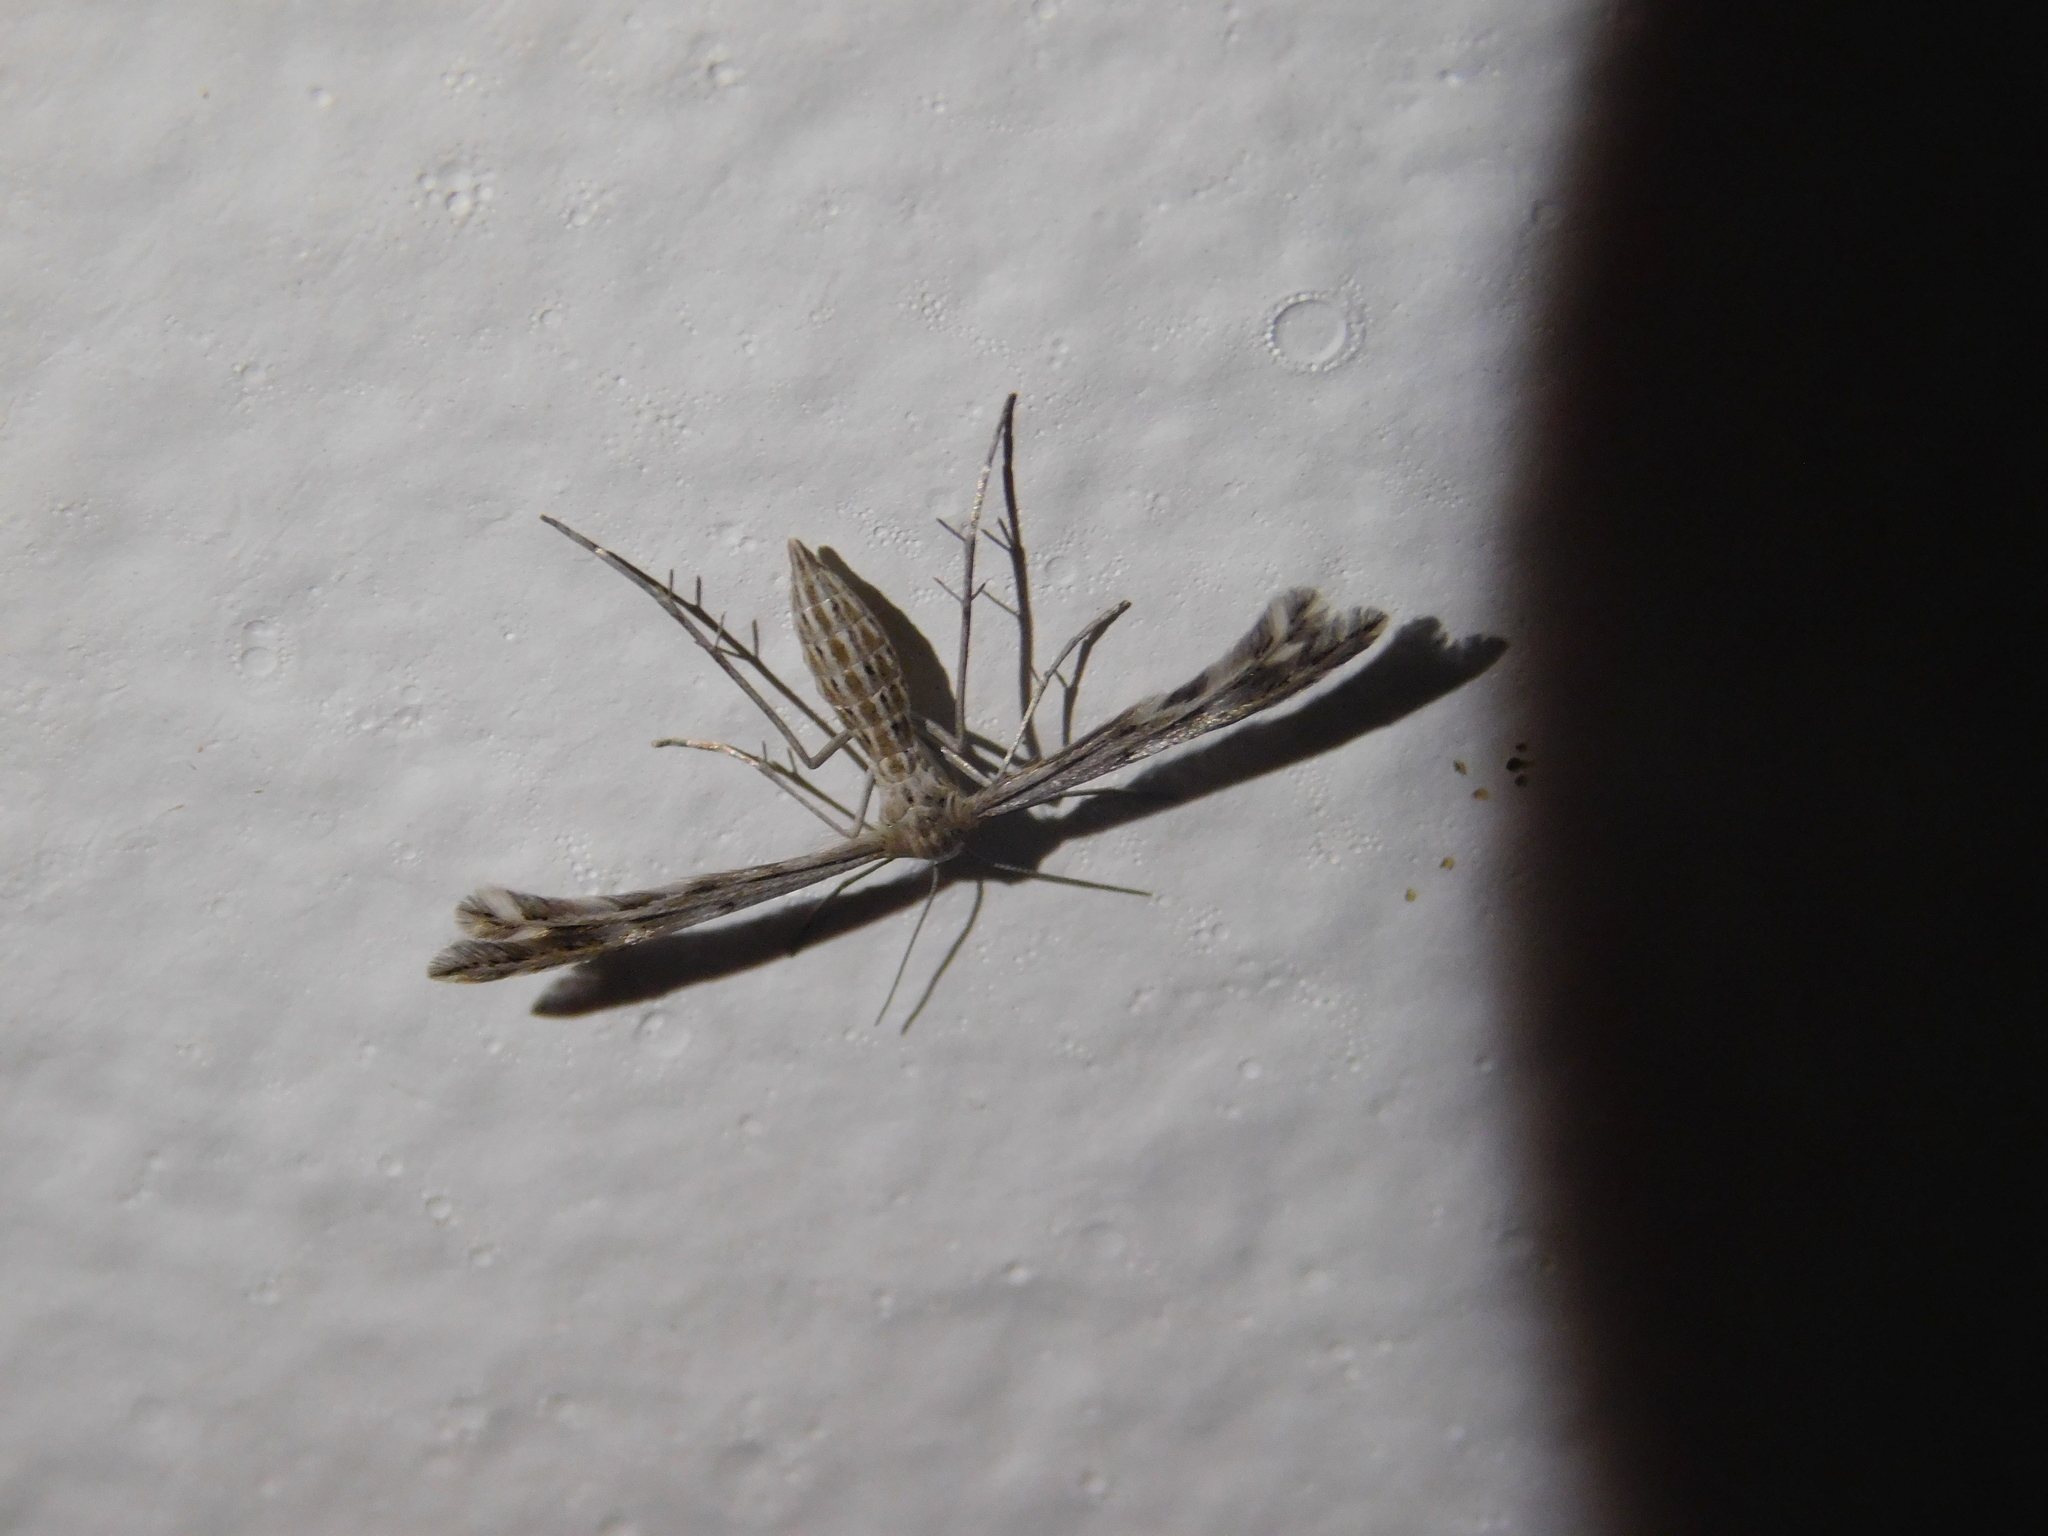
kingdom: Animalia
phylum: Arthropoda
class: Insecta
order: Lepidoptera
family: Pterophoridae
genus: Singularia
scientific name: Singularia alternaria
